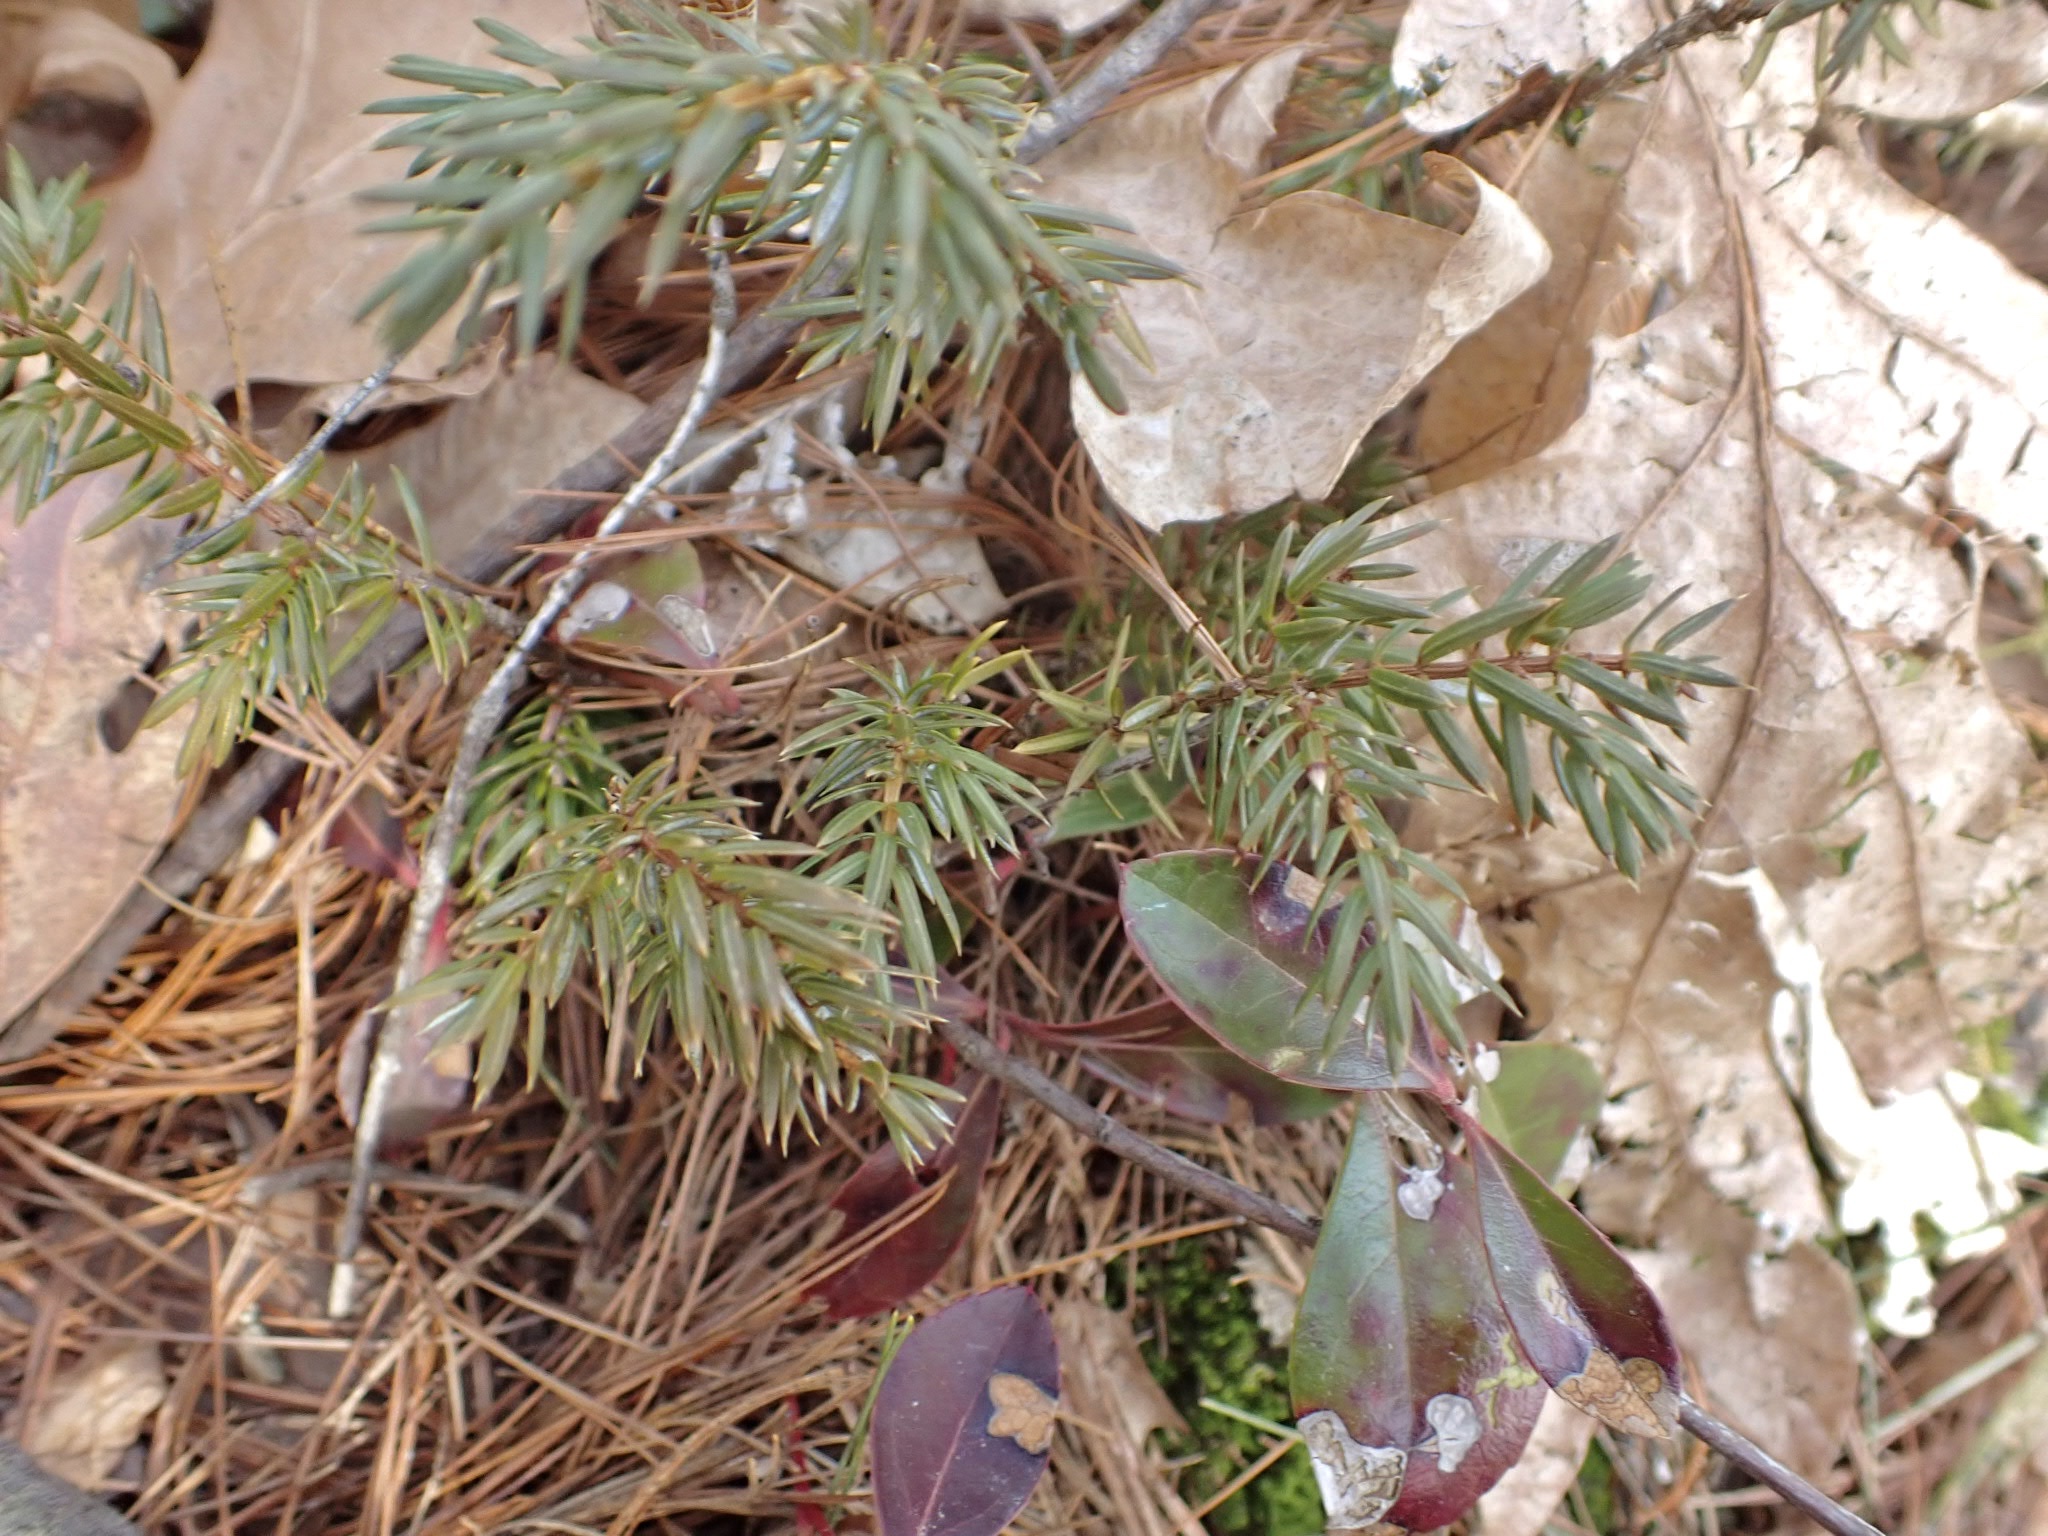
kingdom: Plantae
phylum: Tracheophyta
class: Pinopsida
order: Pinales
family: Cupressaceae
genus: Juniperus
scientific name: Juniperus communis
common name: Common juniper
